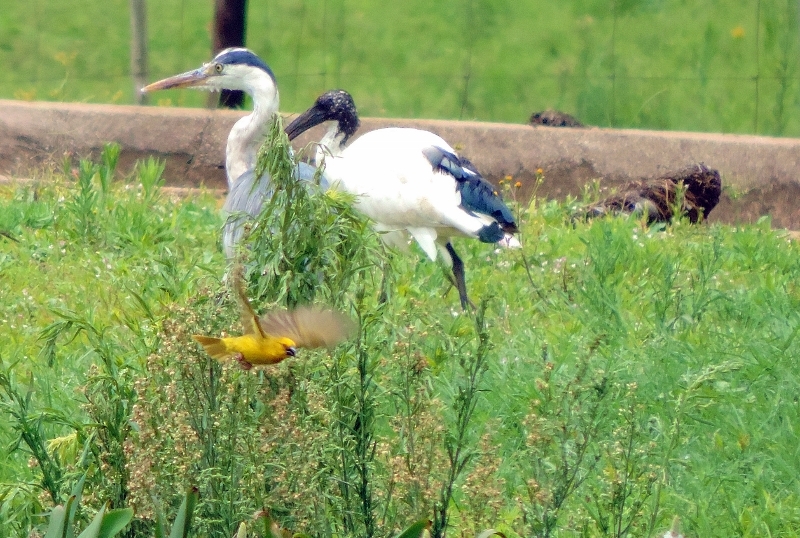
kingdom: Animalia
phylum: Chordata
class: Aves
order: Passeriformes
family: Ploceidae
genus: Ploceus
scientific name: Ploceus xanthops
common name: Holub's golden weaver
